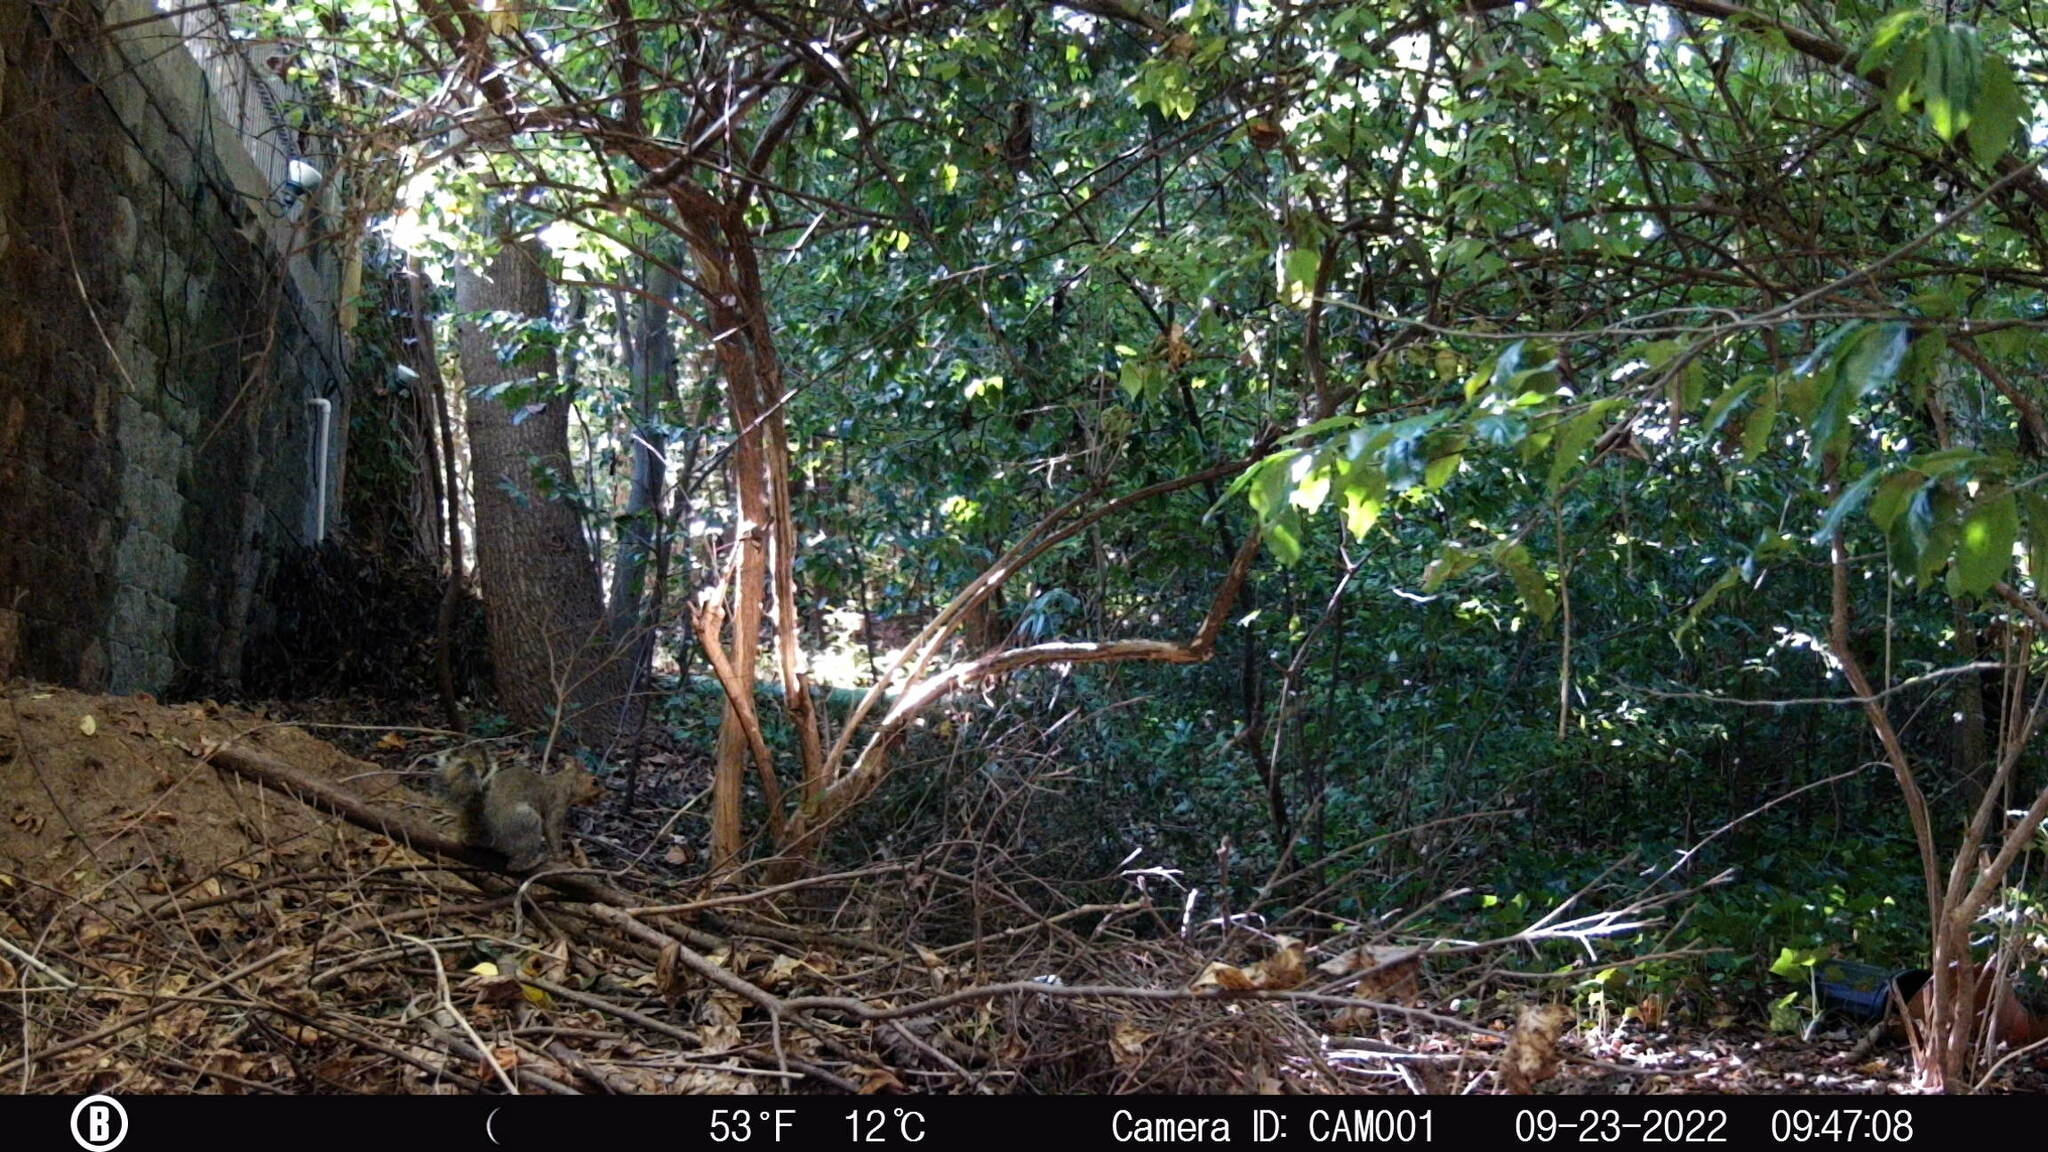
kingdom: Animalia
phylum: Chordata
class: Mammalia
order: Rodentia
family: Sciuridae
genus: Sciurus
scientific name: Sciurus carolinensis
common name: Eastern gray squirrel
